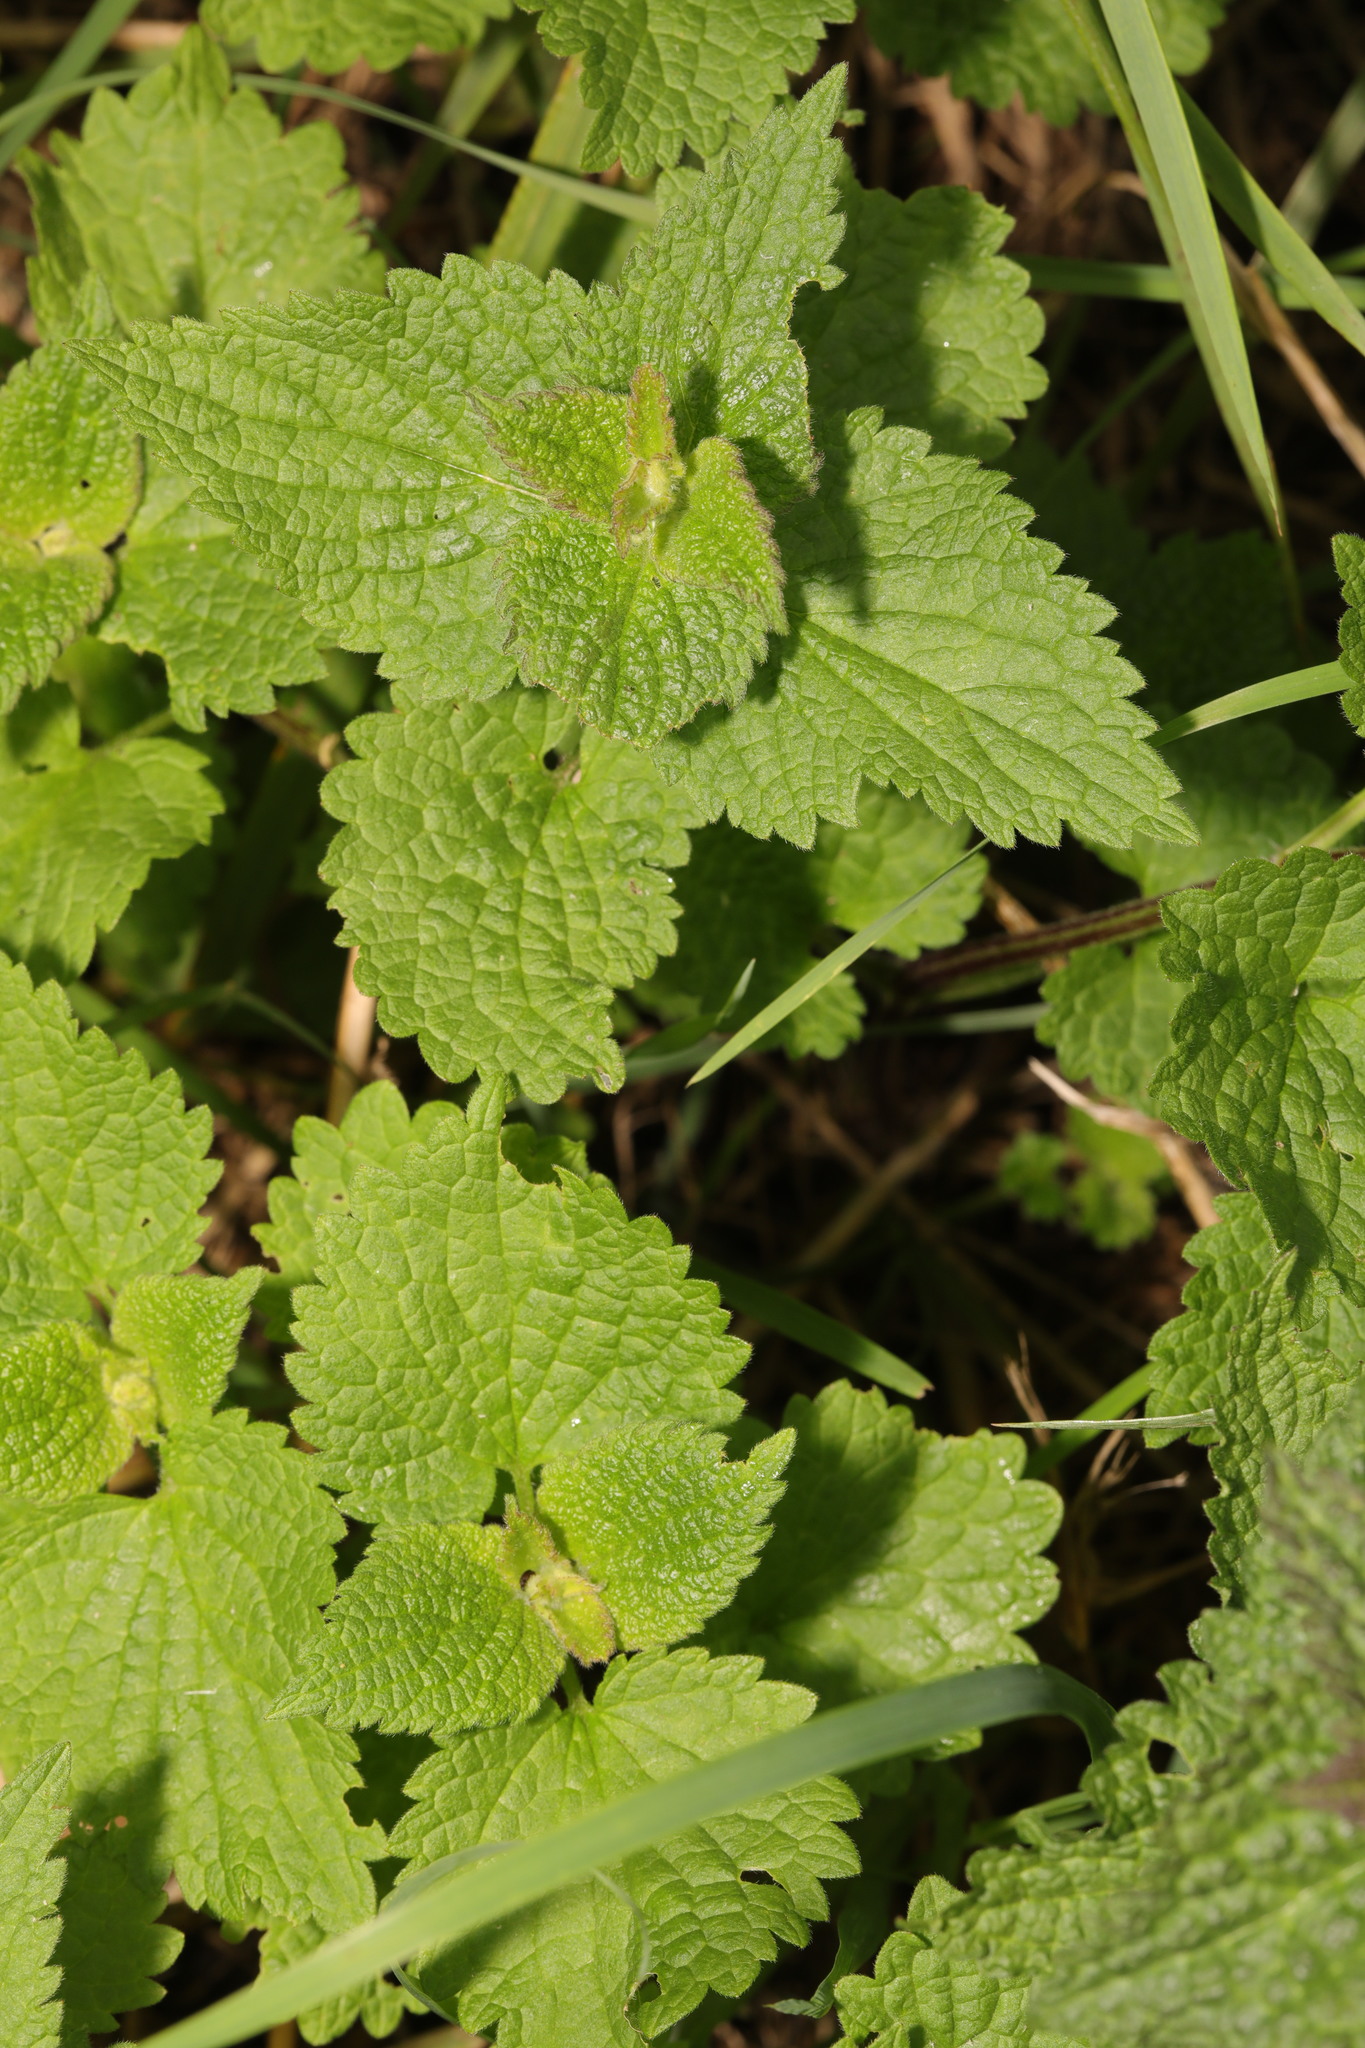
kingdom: Plantae
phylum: Tracheophyta
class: Magnoliopsida
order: Lamiales
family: Lamiaceae
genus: Lamium
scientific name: Lamium album
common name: White dead-nettle
